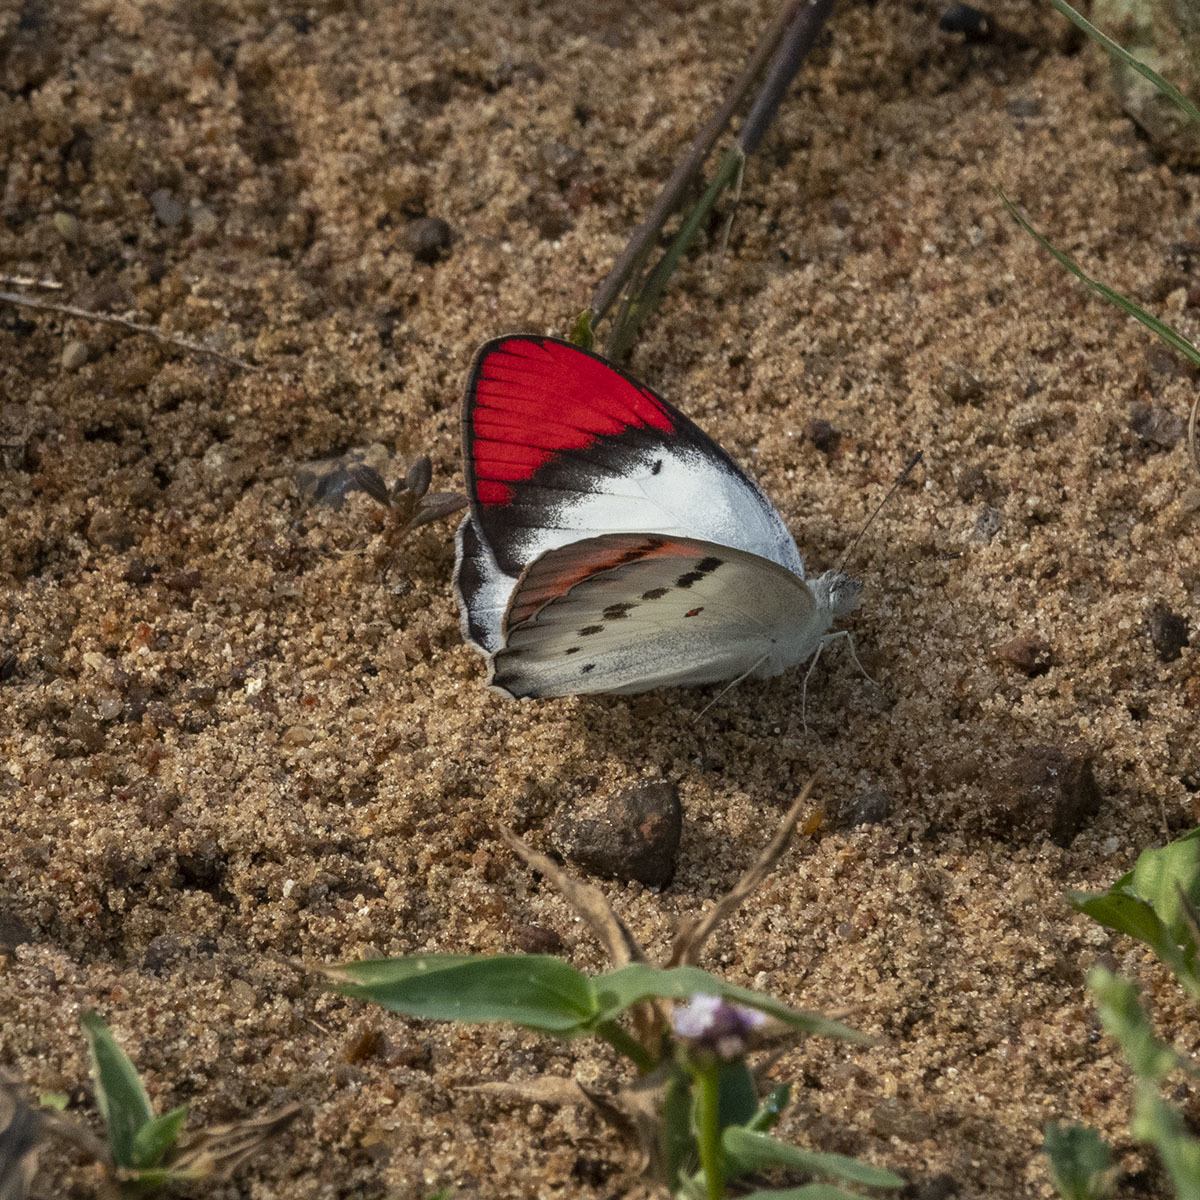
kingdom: Animalia
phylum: Arthropoda
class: Insecta
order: Lepidoptera
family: Pieridae
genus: Colotis
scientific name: Colotis danae
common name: Crimson tip
